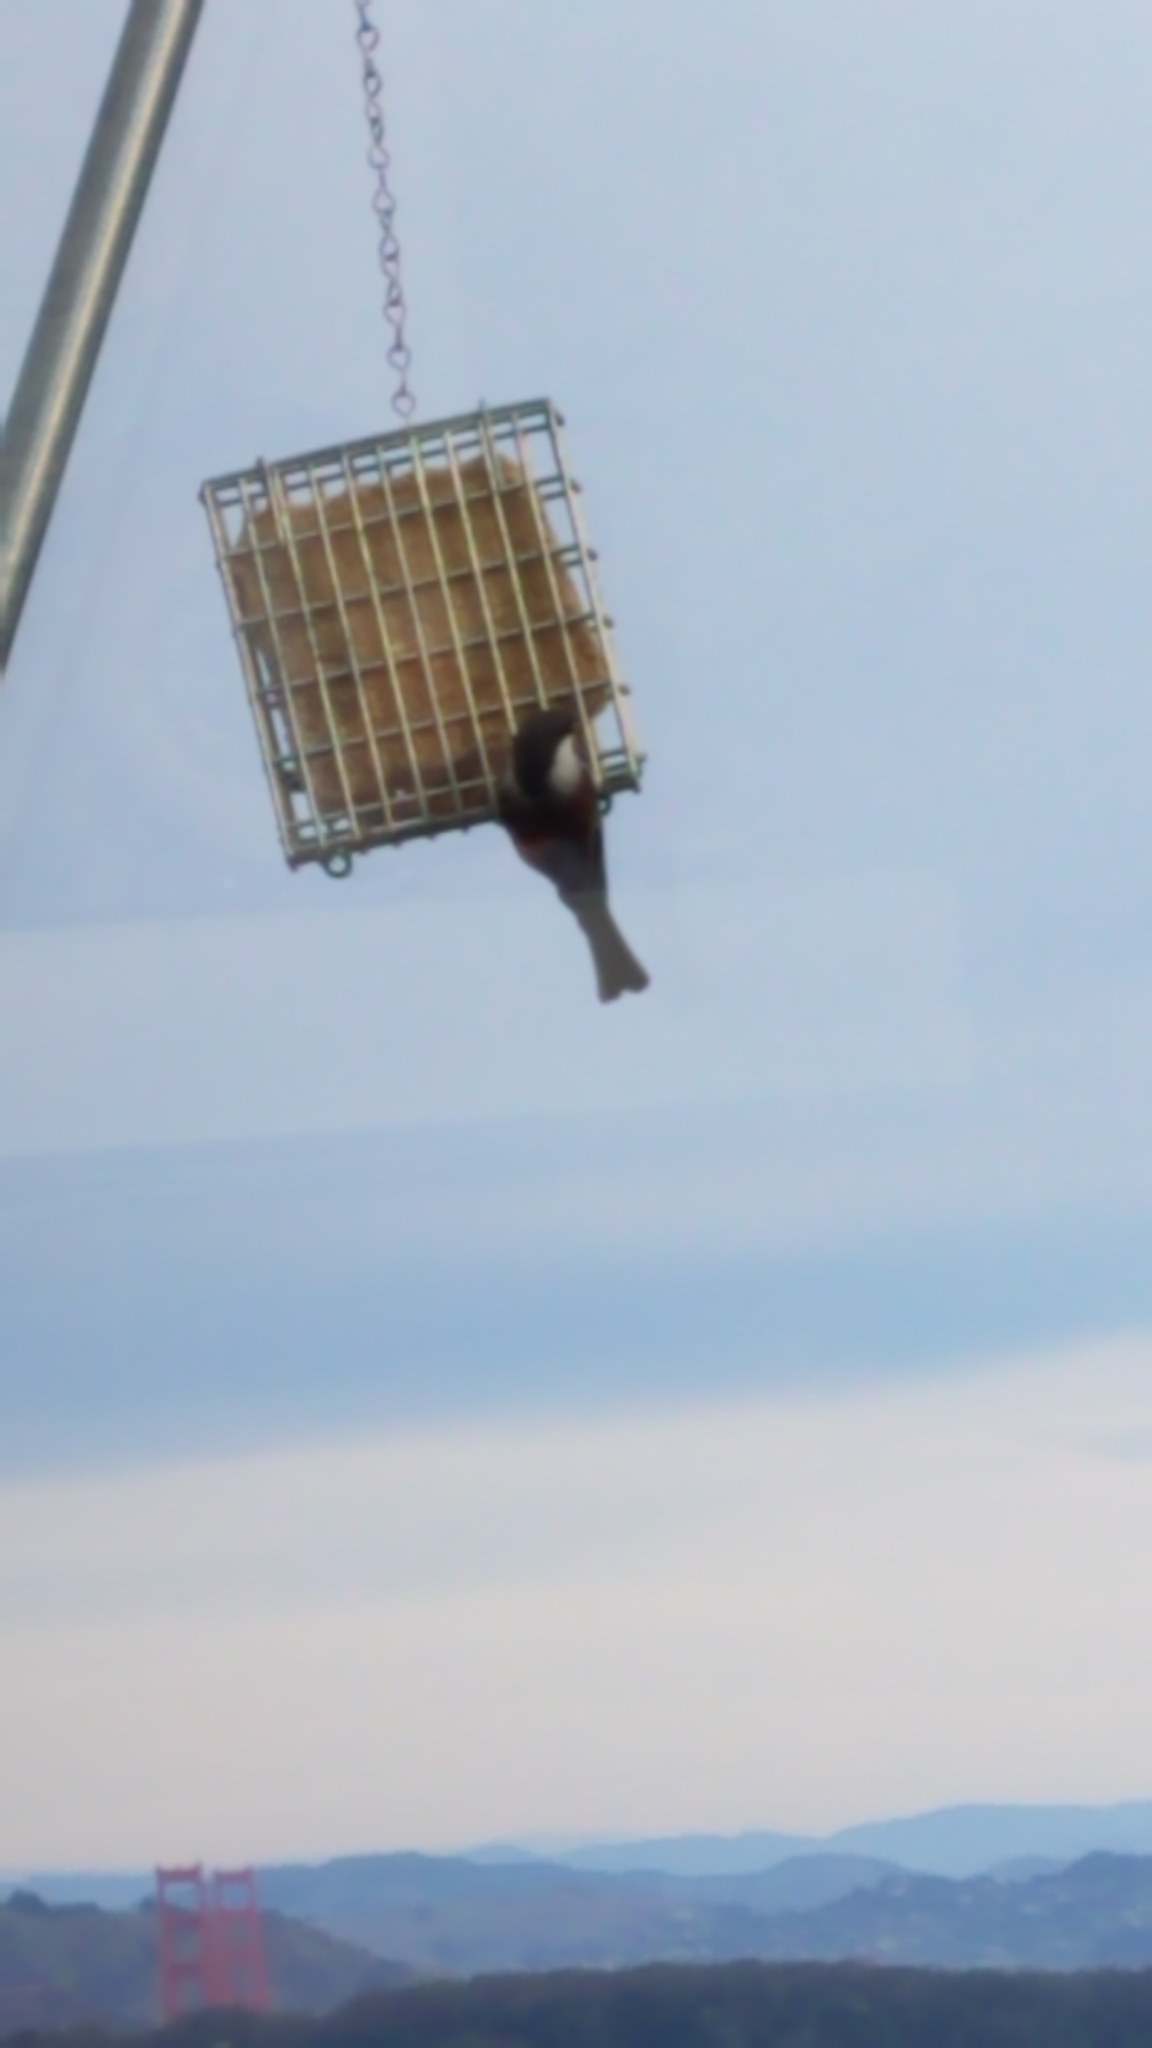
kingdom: Animalia
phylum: Chordata
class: Aves
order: Passeriformes
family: Paridae
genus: Poecile
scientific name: Poecile rufescens
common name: Chestnut-backed chickadee
